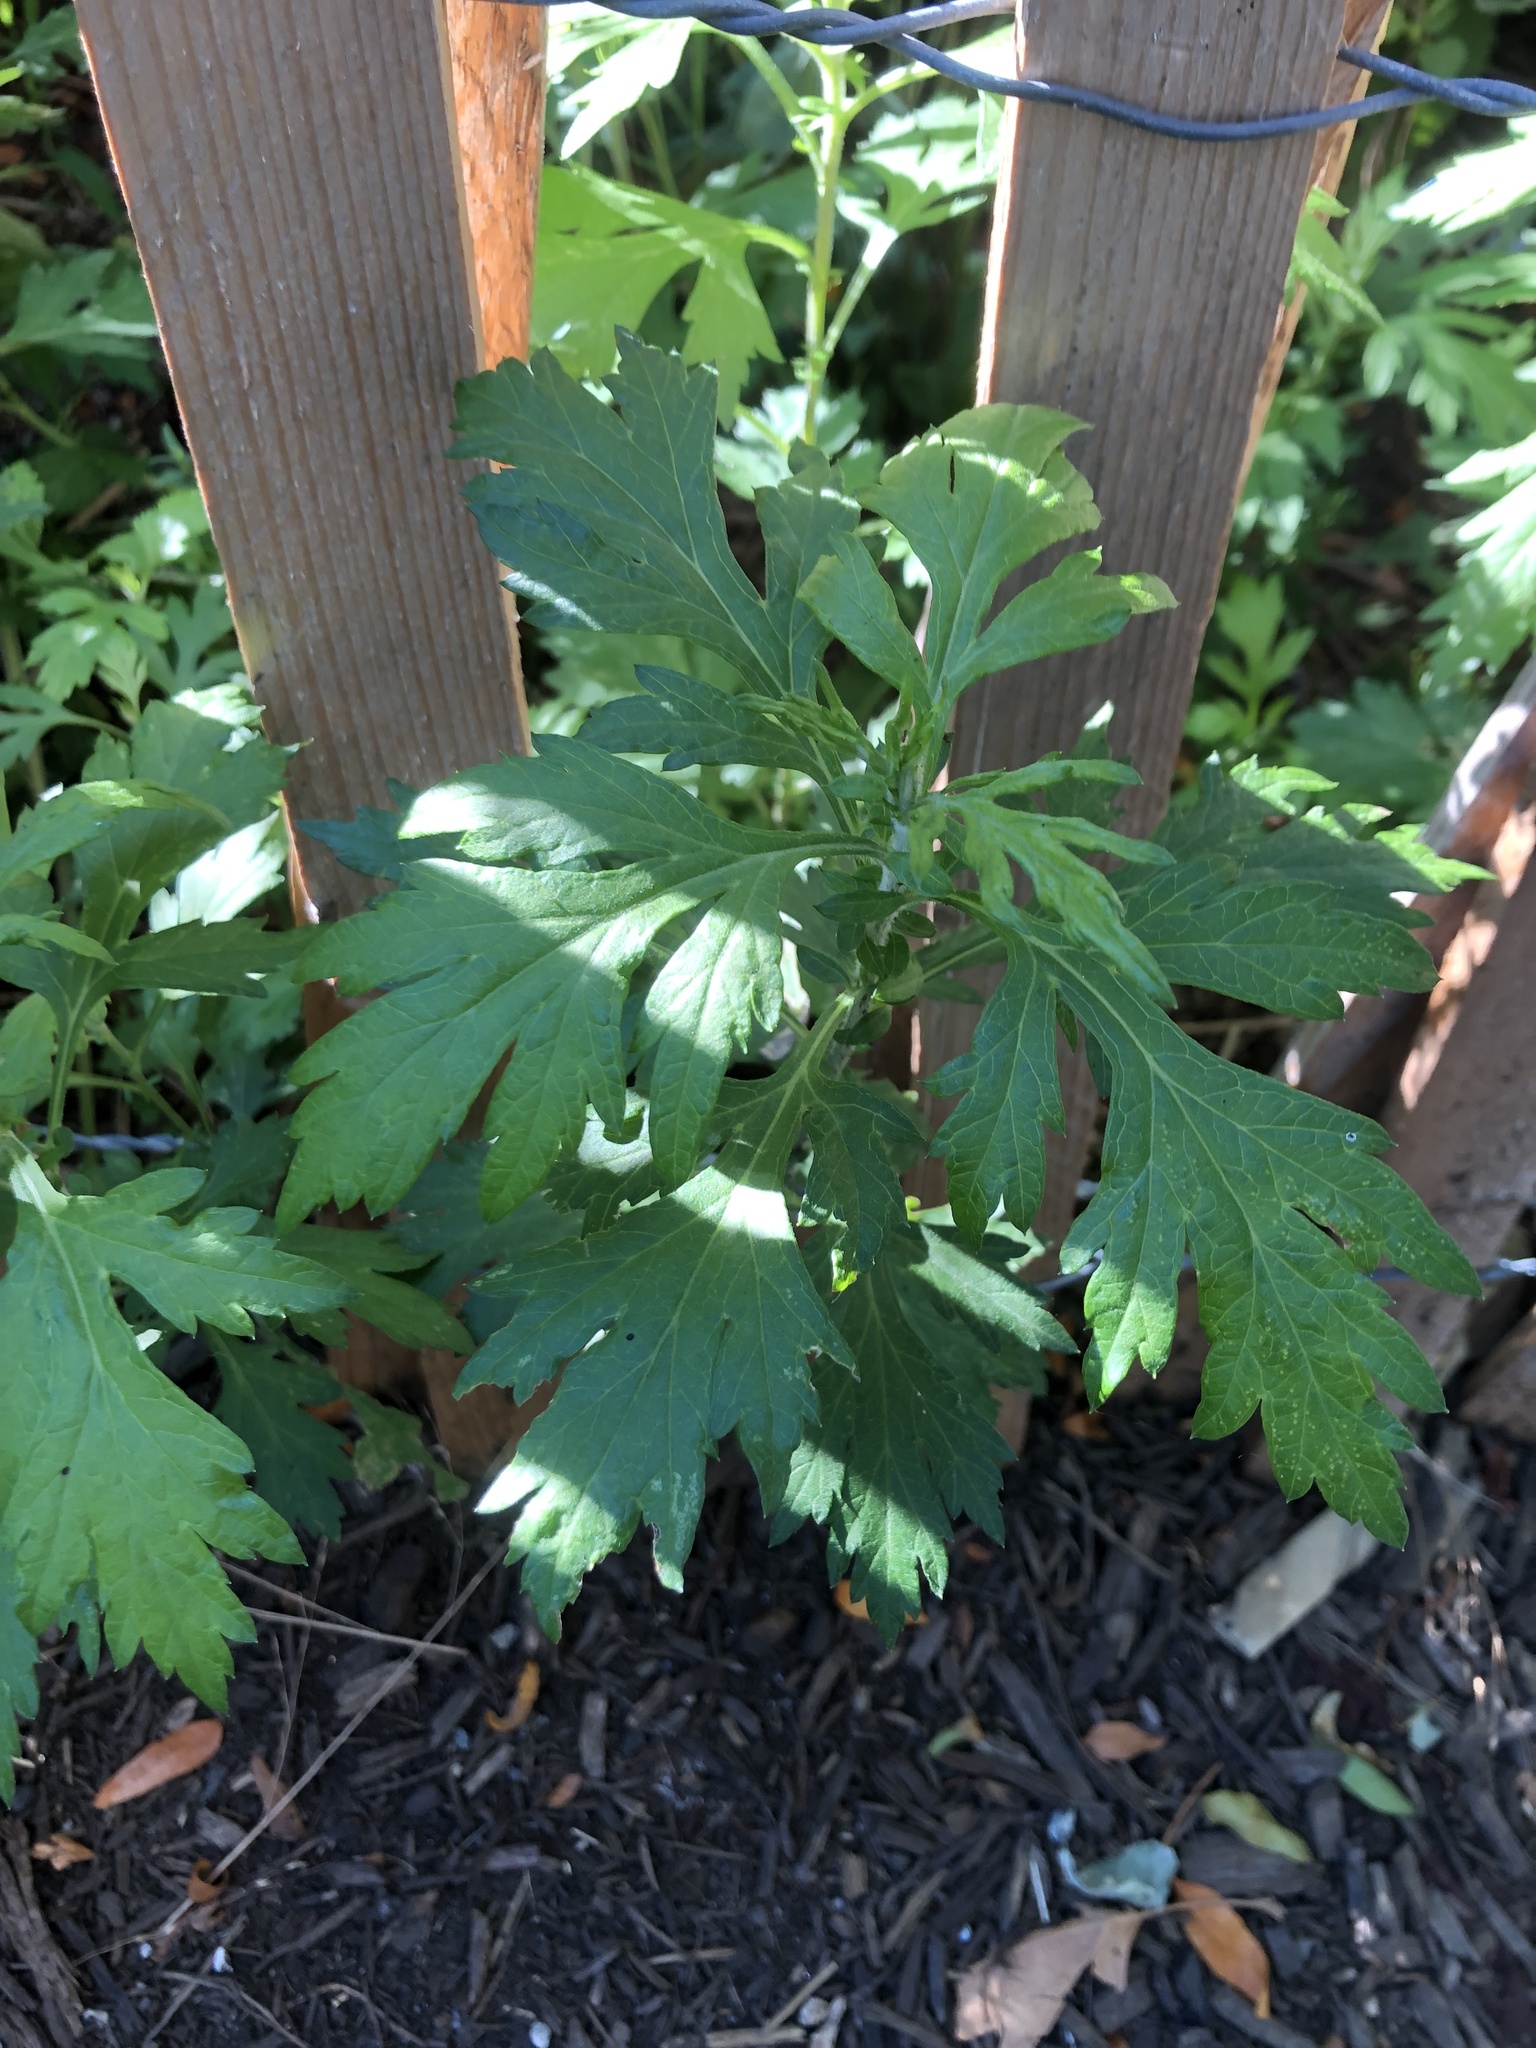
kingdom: Plantae
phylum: Tracheophyta
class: Magnoliopsida
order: Asterales
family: Asteraceae
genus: Artemisia
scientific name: Artemisia vulgaris
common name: Mugwort
